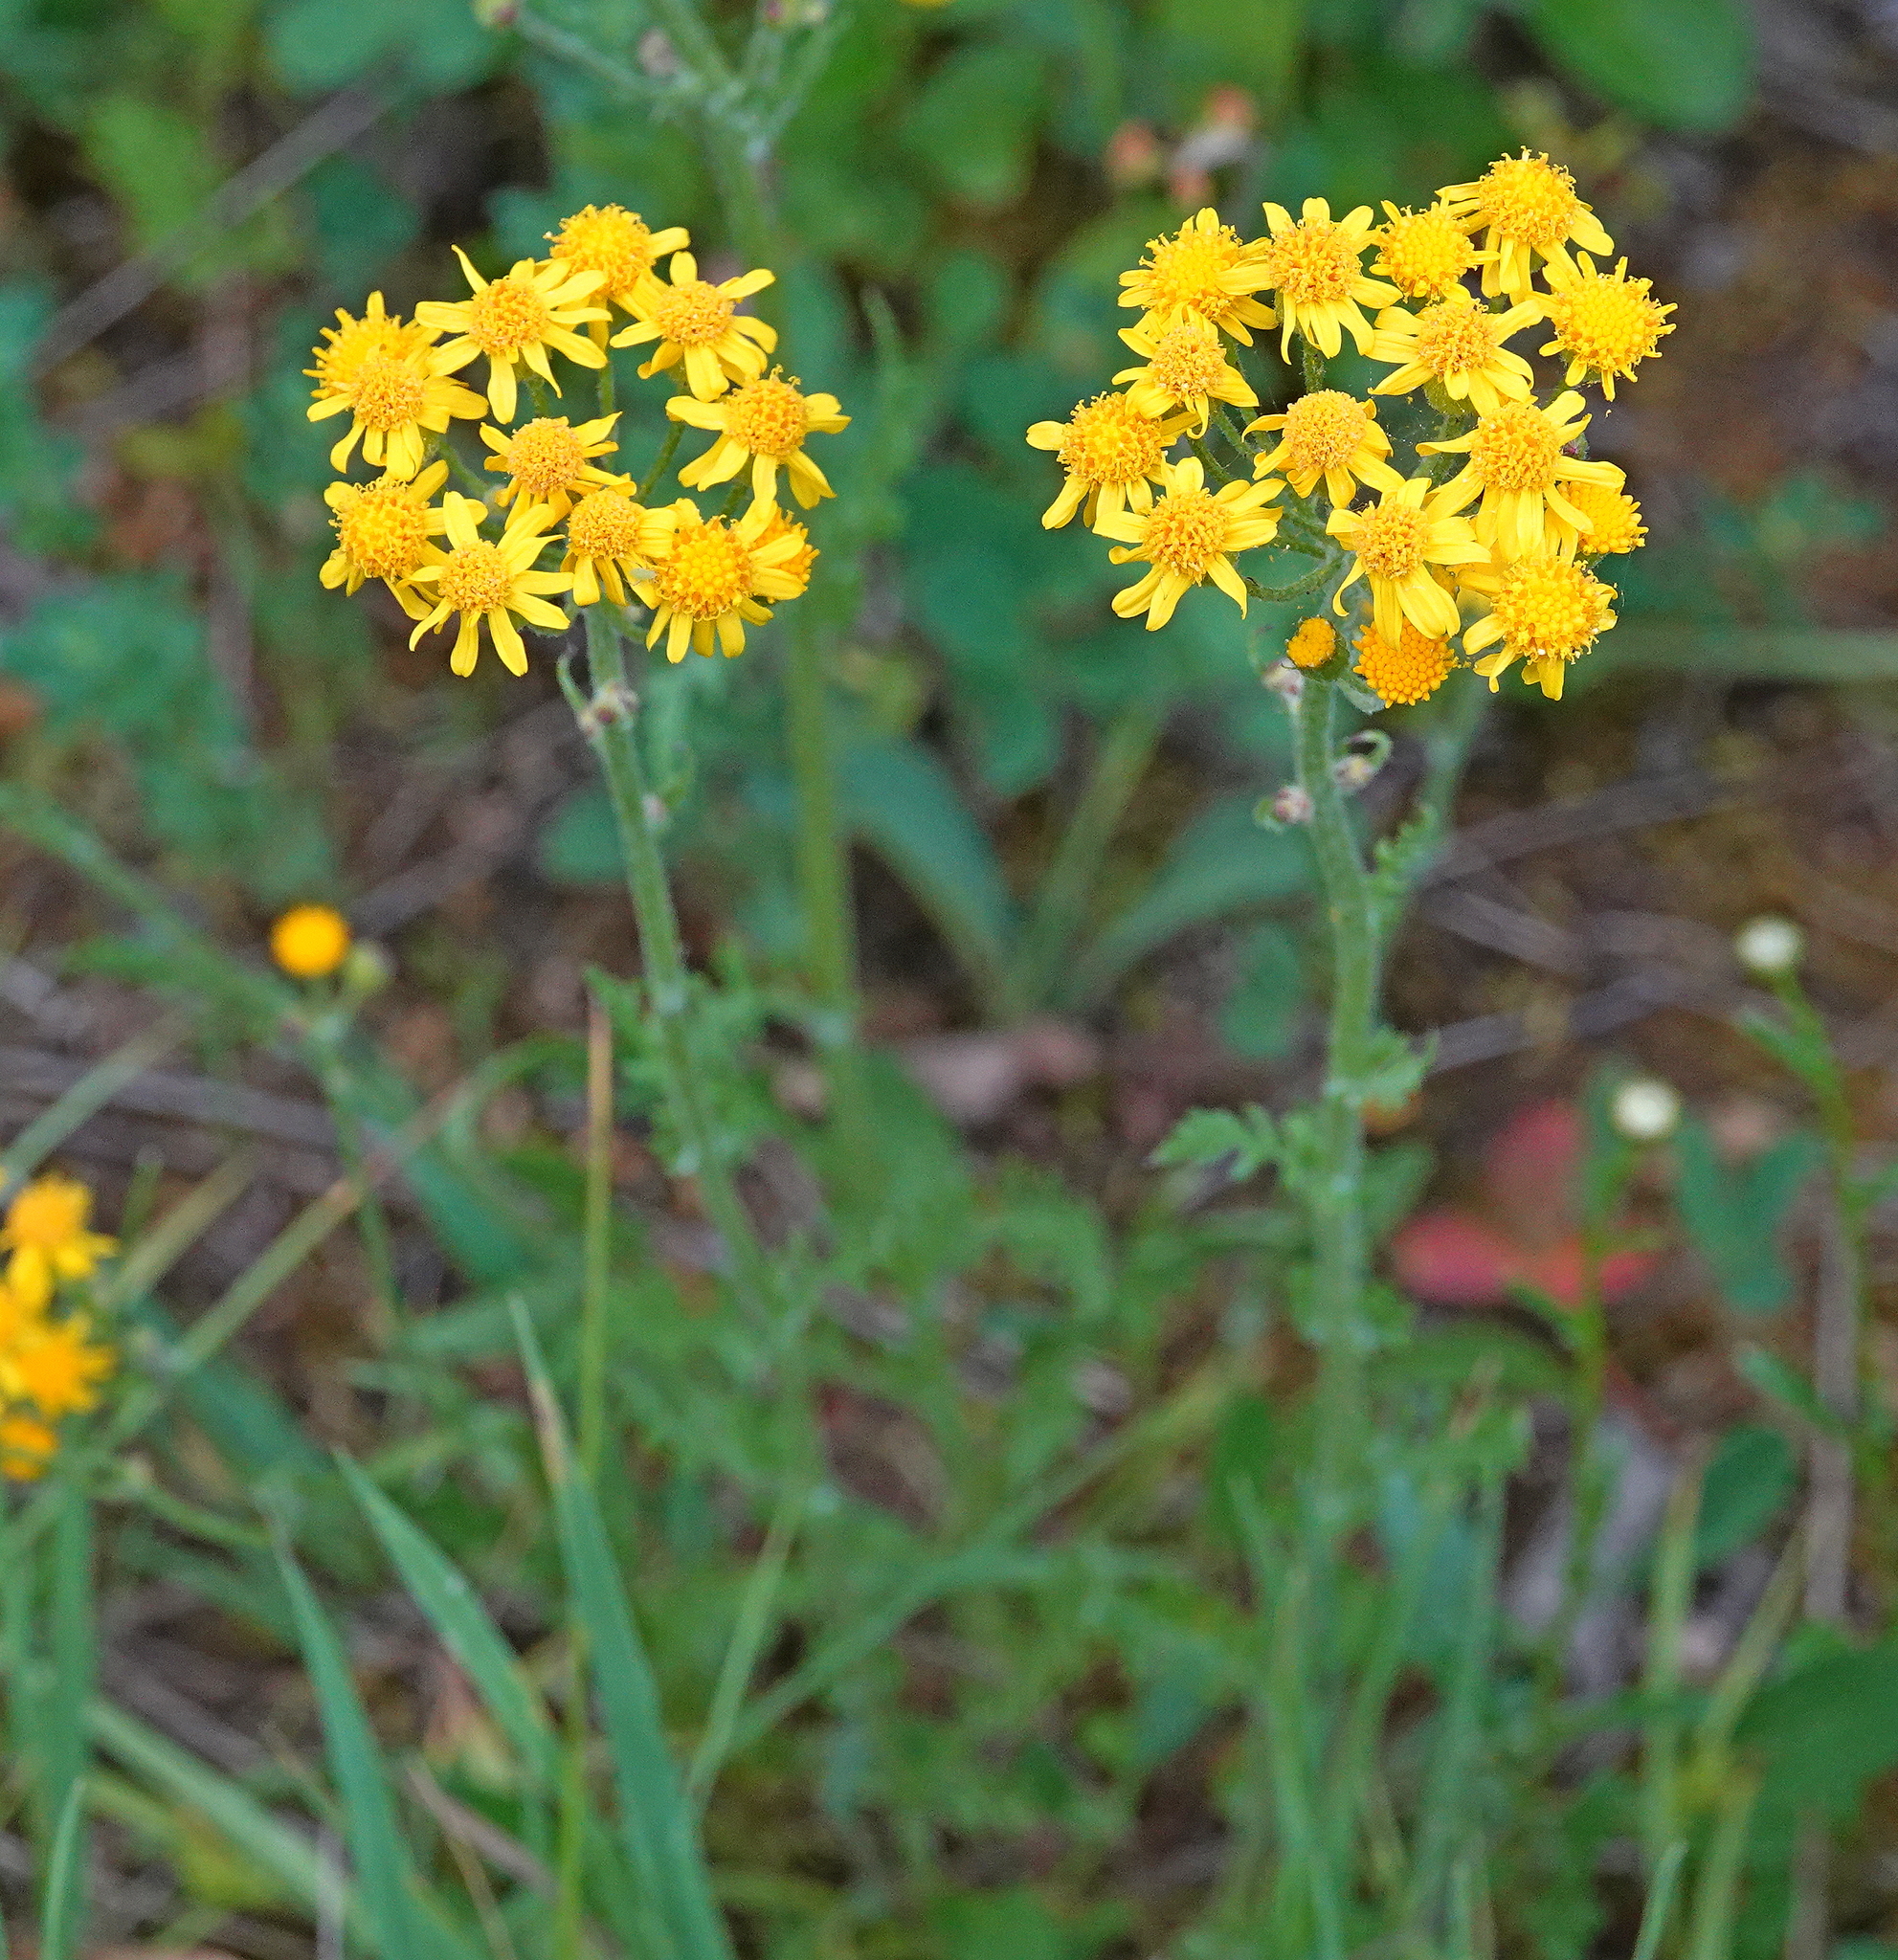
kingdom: Plantae
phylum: Tracheophyta
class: Magnoliopsida
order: Asterales
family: Asteraceae
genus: Packera
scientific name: Packera paupercula
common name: Balsam groundsel
